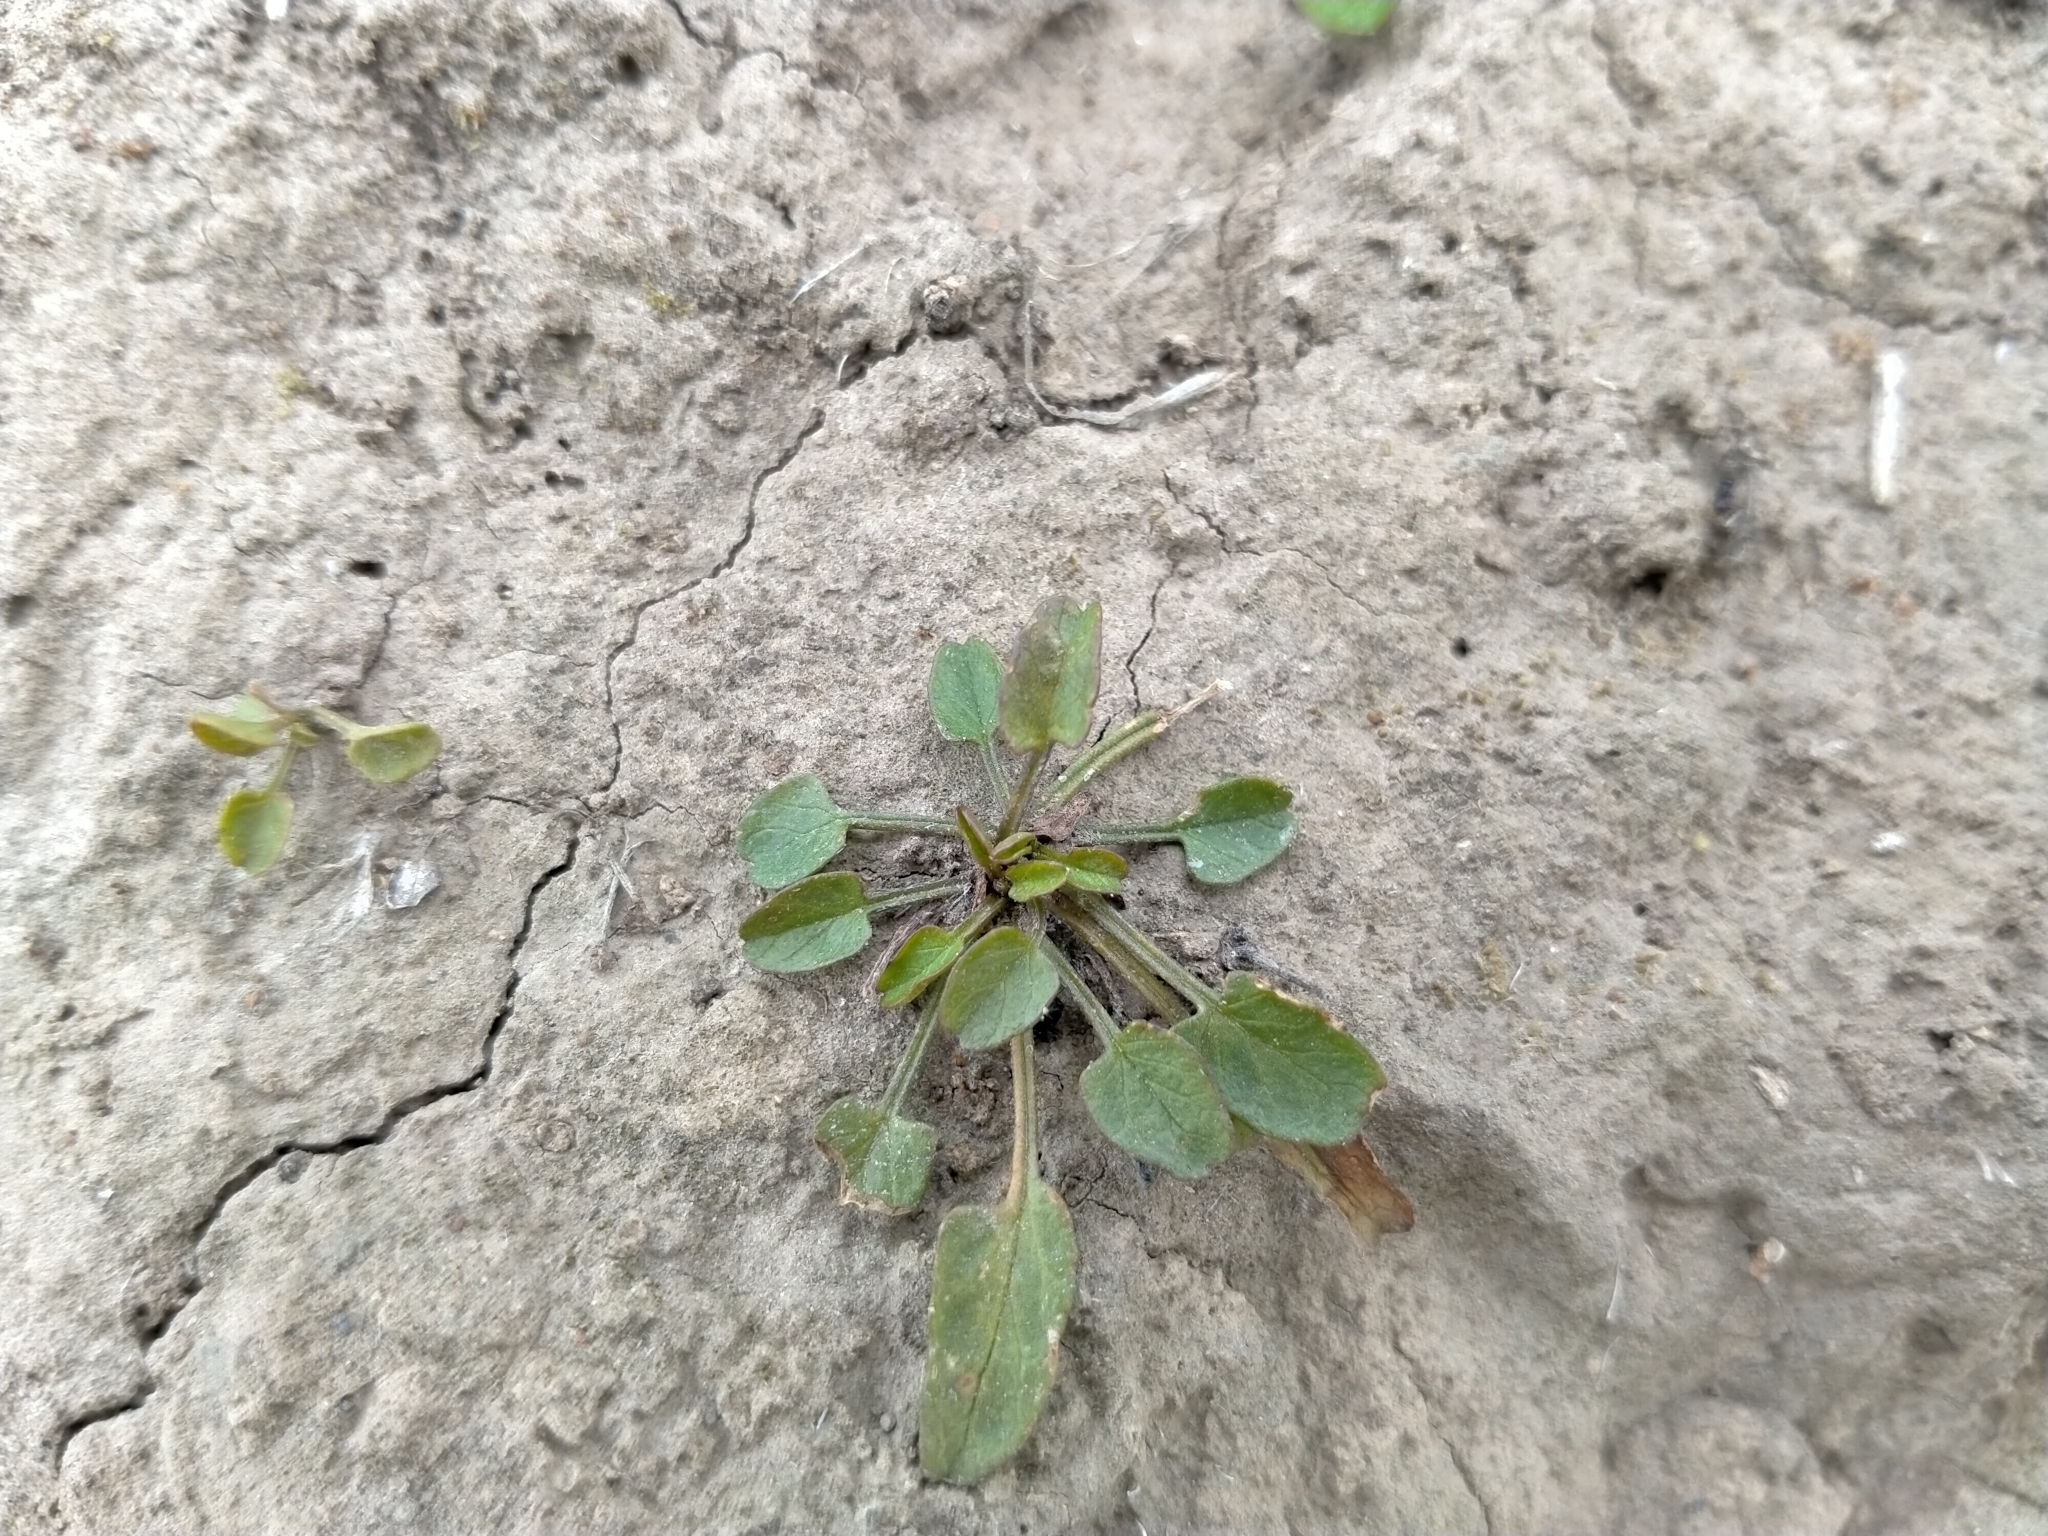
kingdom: Plantae
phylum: Tracheophyta
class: Magnoliopsida
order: Solanales
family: Convolvulaceae
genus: Convolvulus
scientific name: Convolvulus waitaha
